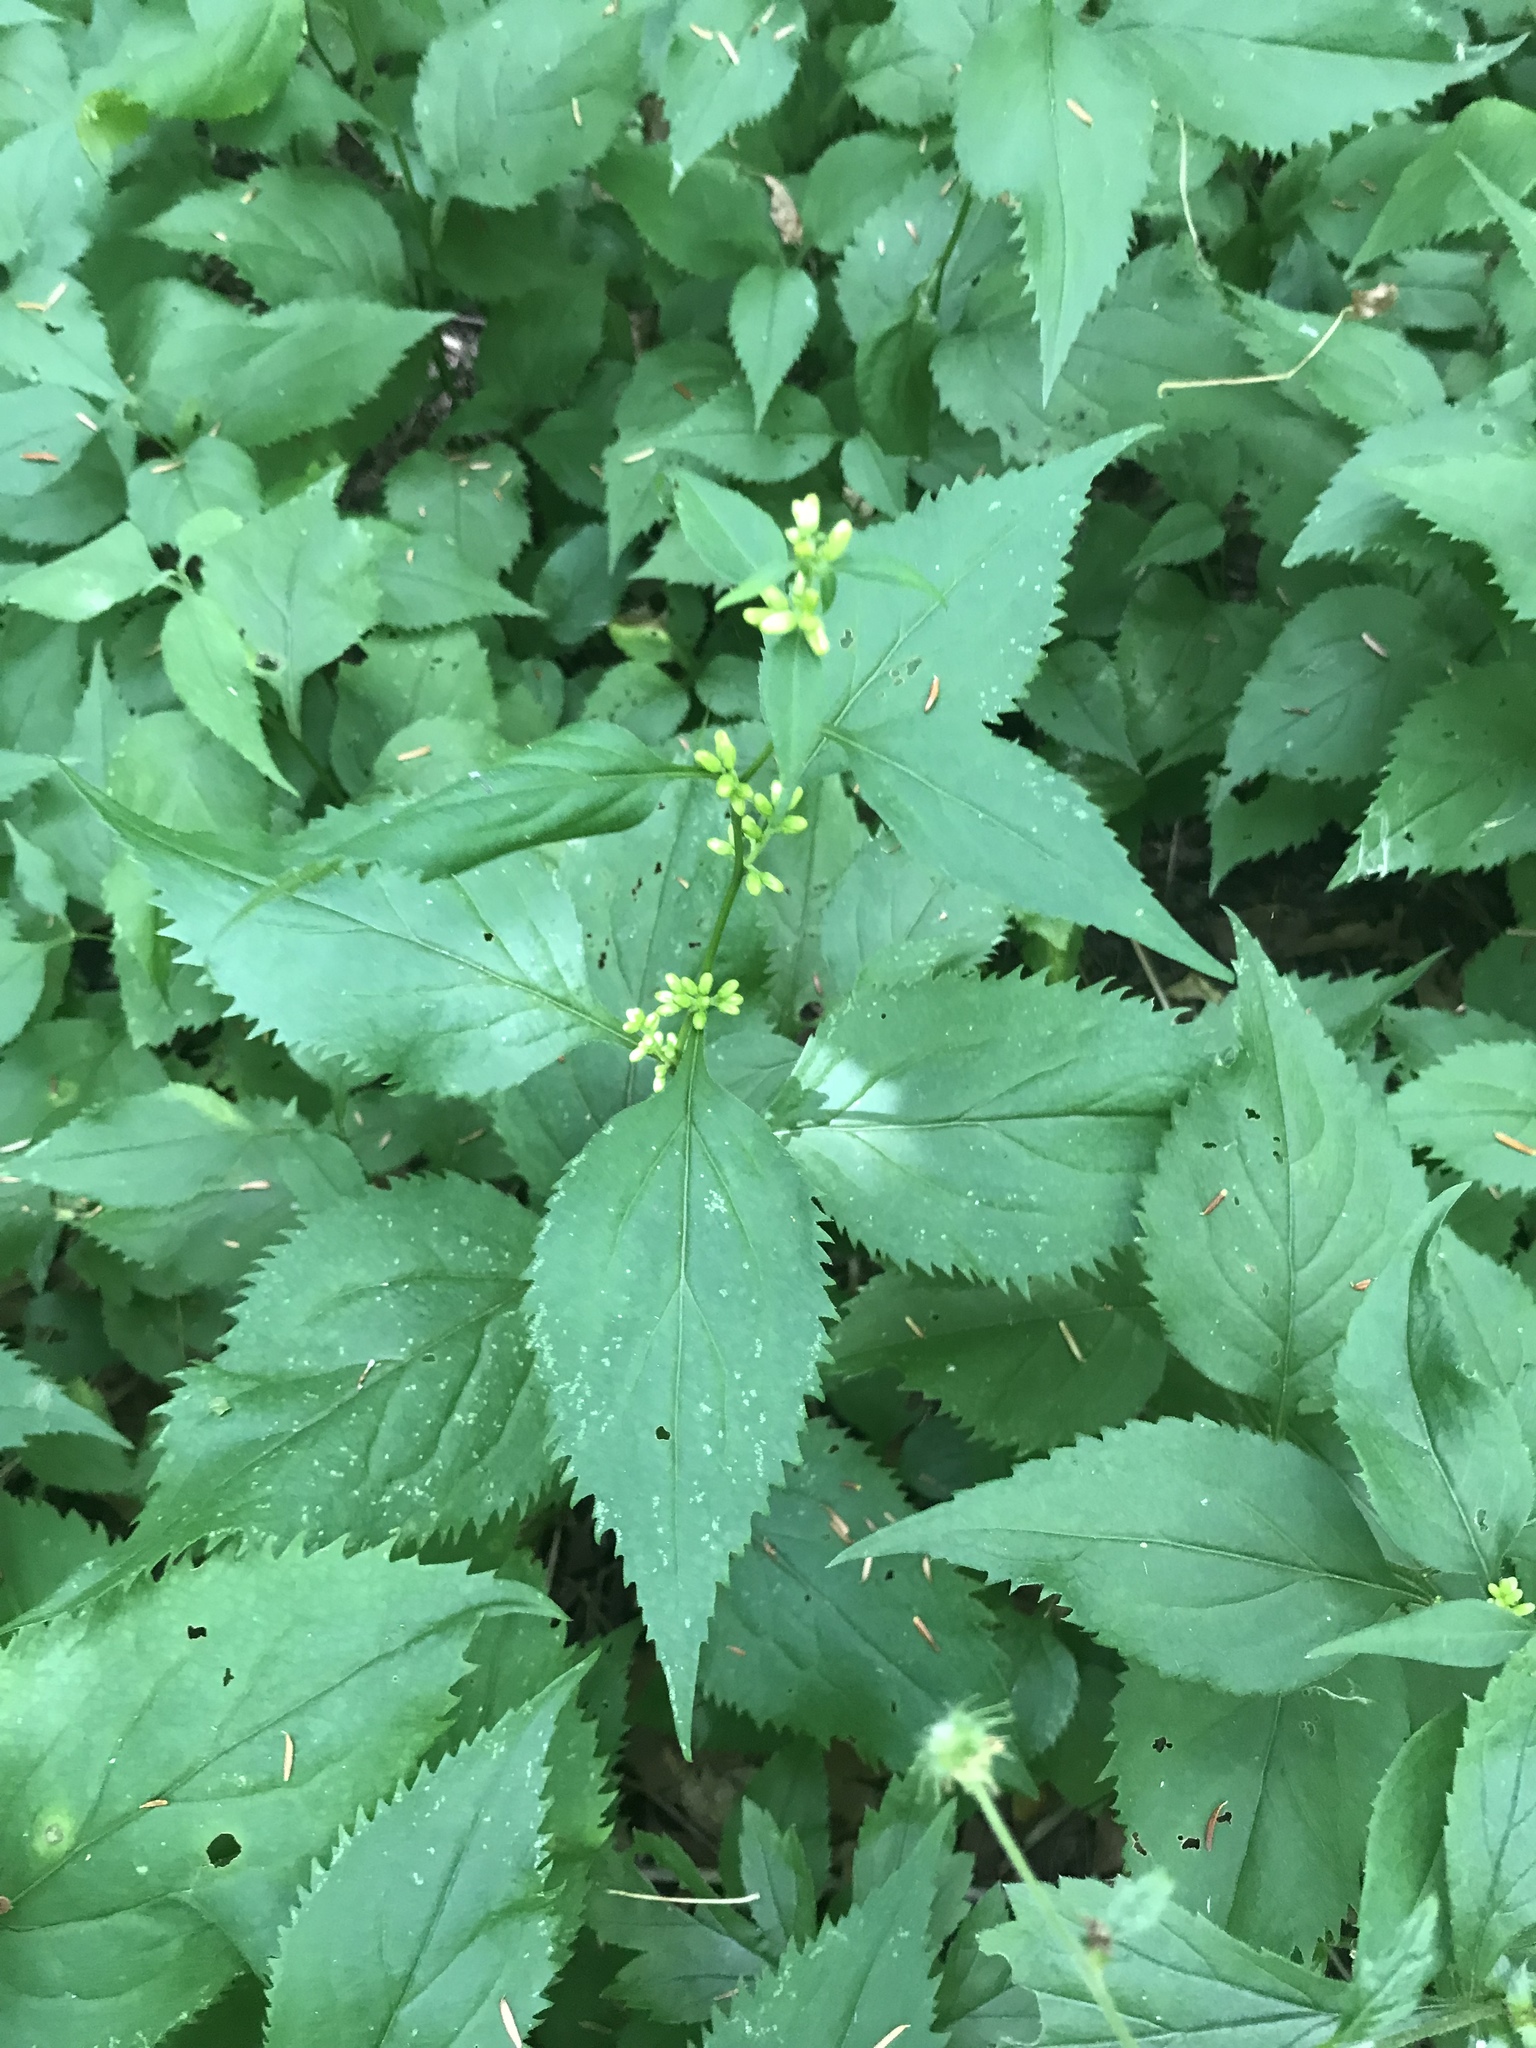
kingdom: Plantae
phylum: Tracheophyta
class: Magnoliopsida
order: Asterales
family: Asteraceae
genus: Solidago
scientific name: Solidago flexicaulis
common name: Zig-zag goldenrod
